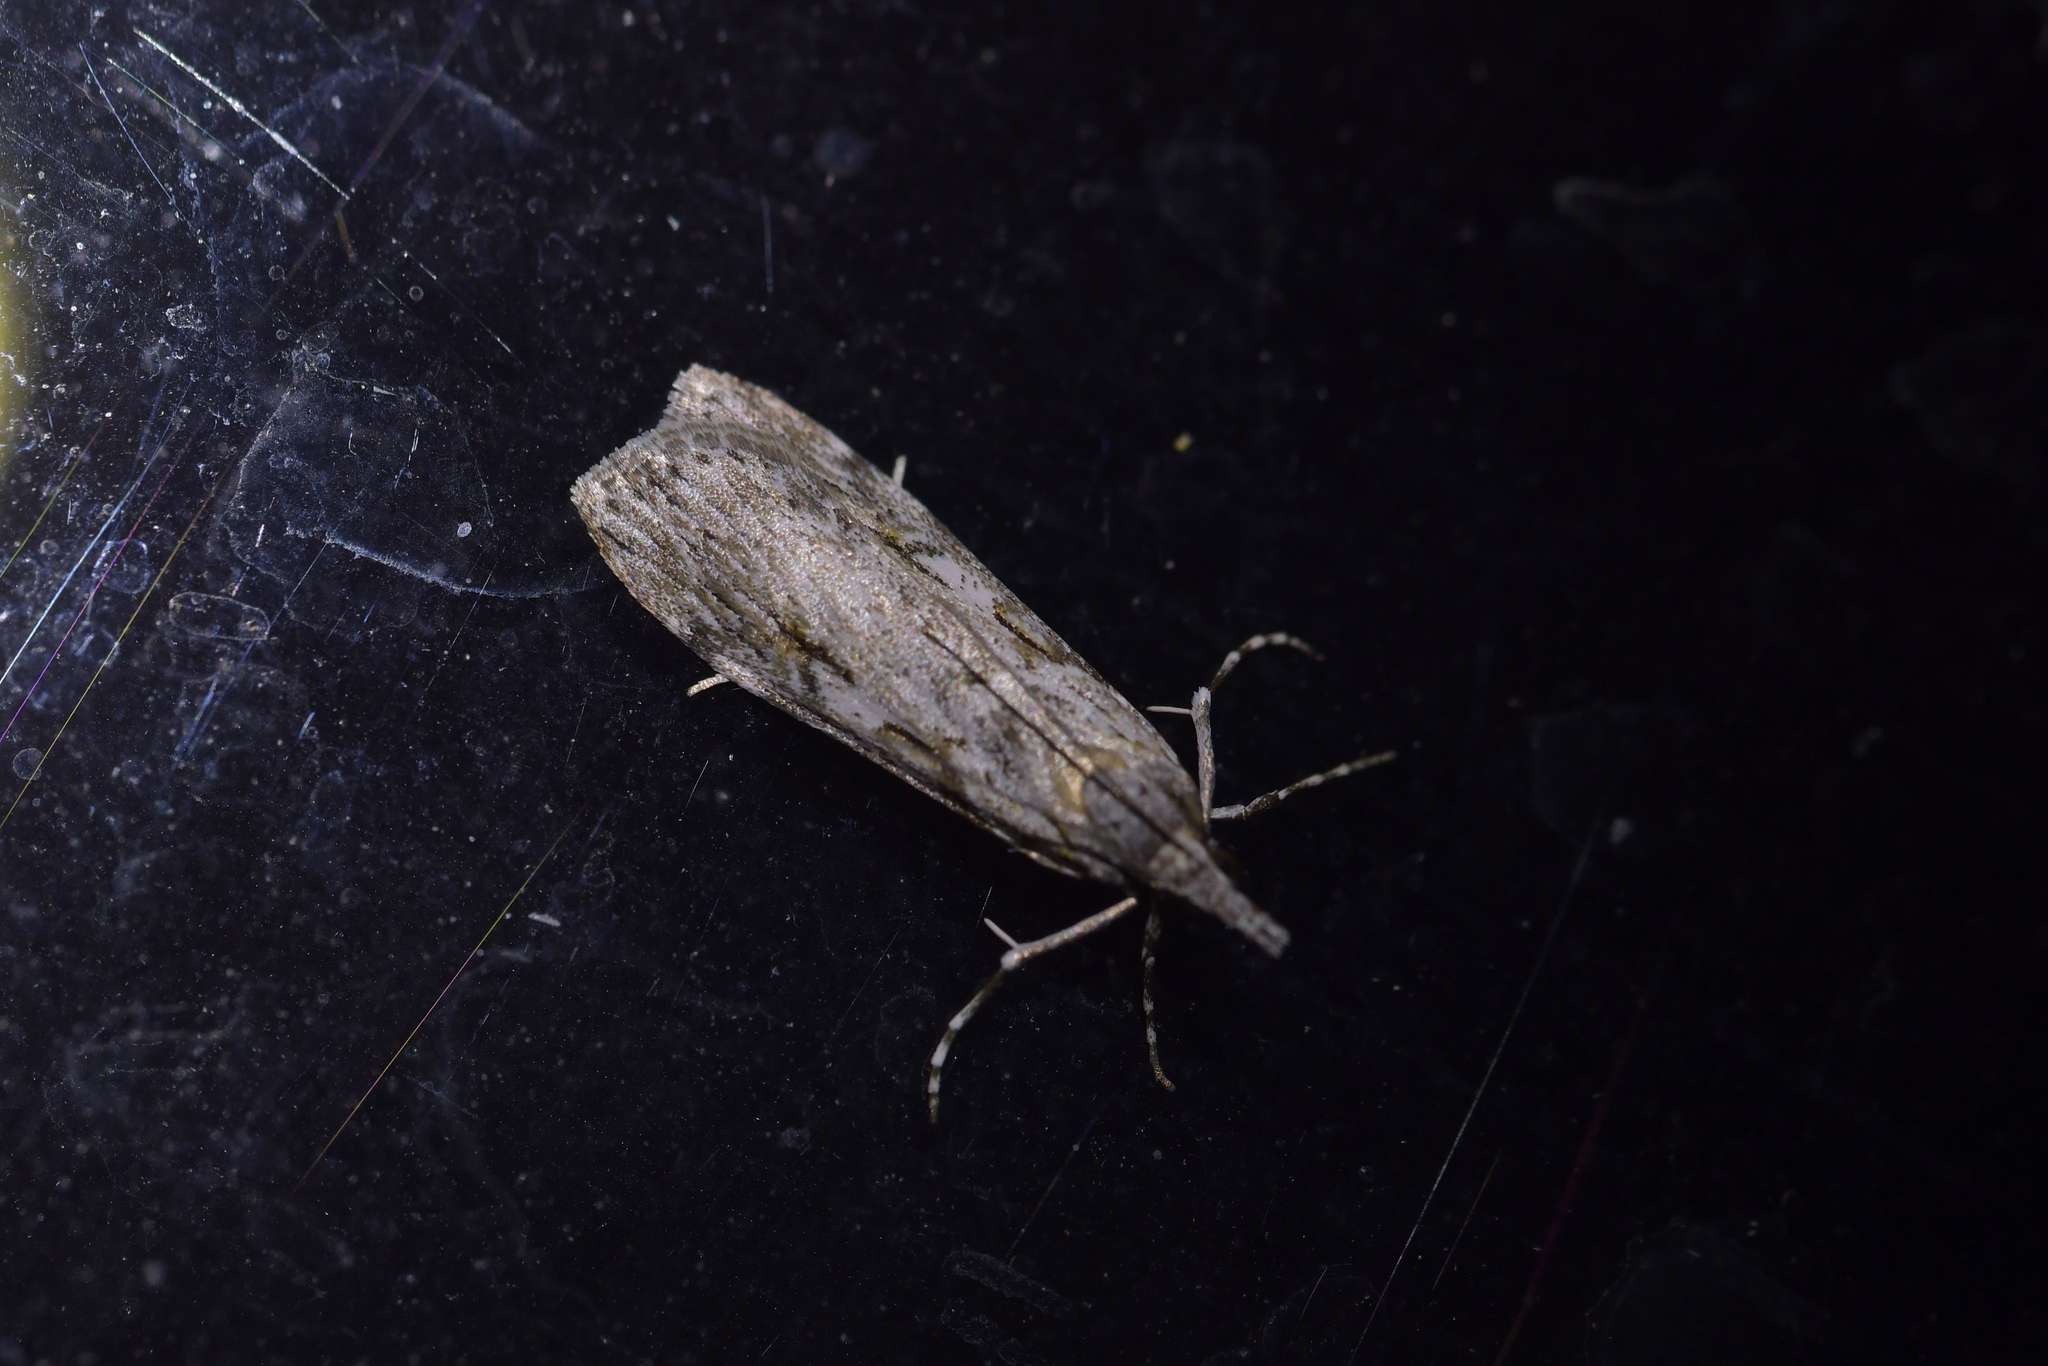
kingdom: Animalia
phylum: Arthropoda
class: Insecta
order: Lepidoptera
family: Crambidae
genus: Scoparia
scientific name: Scoparia halopis
